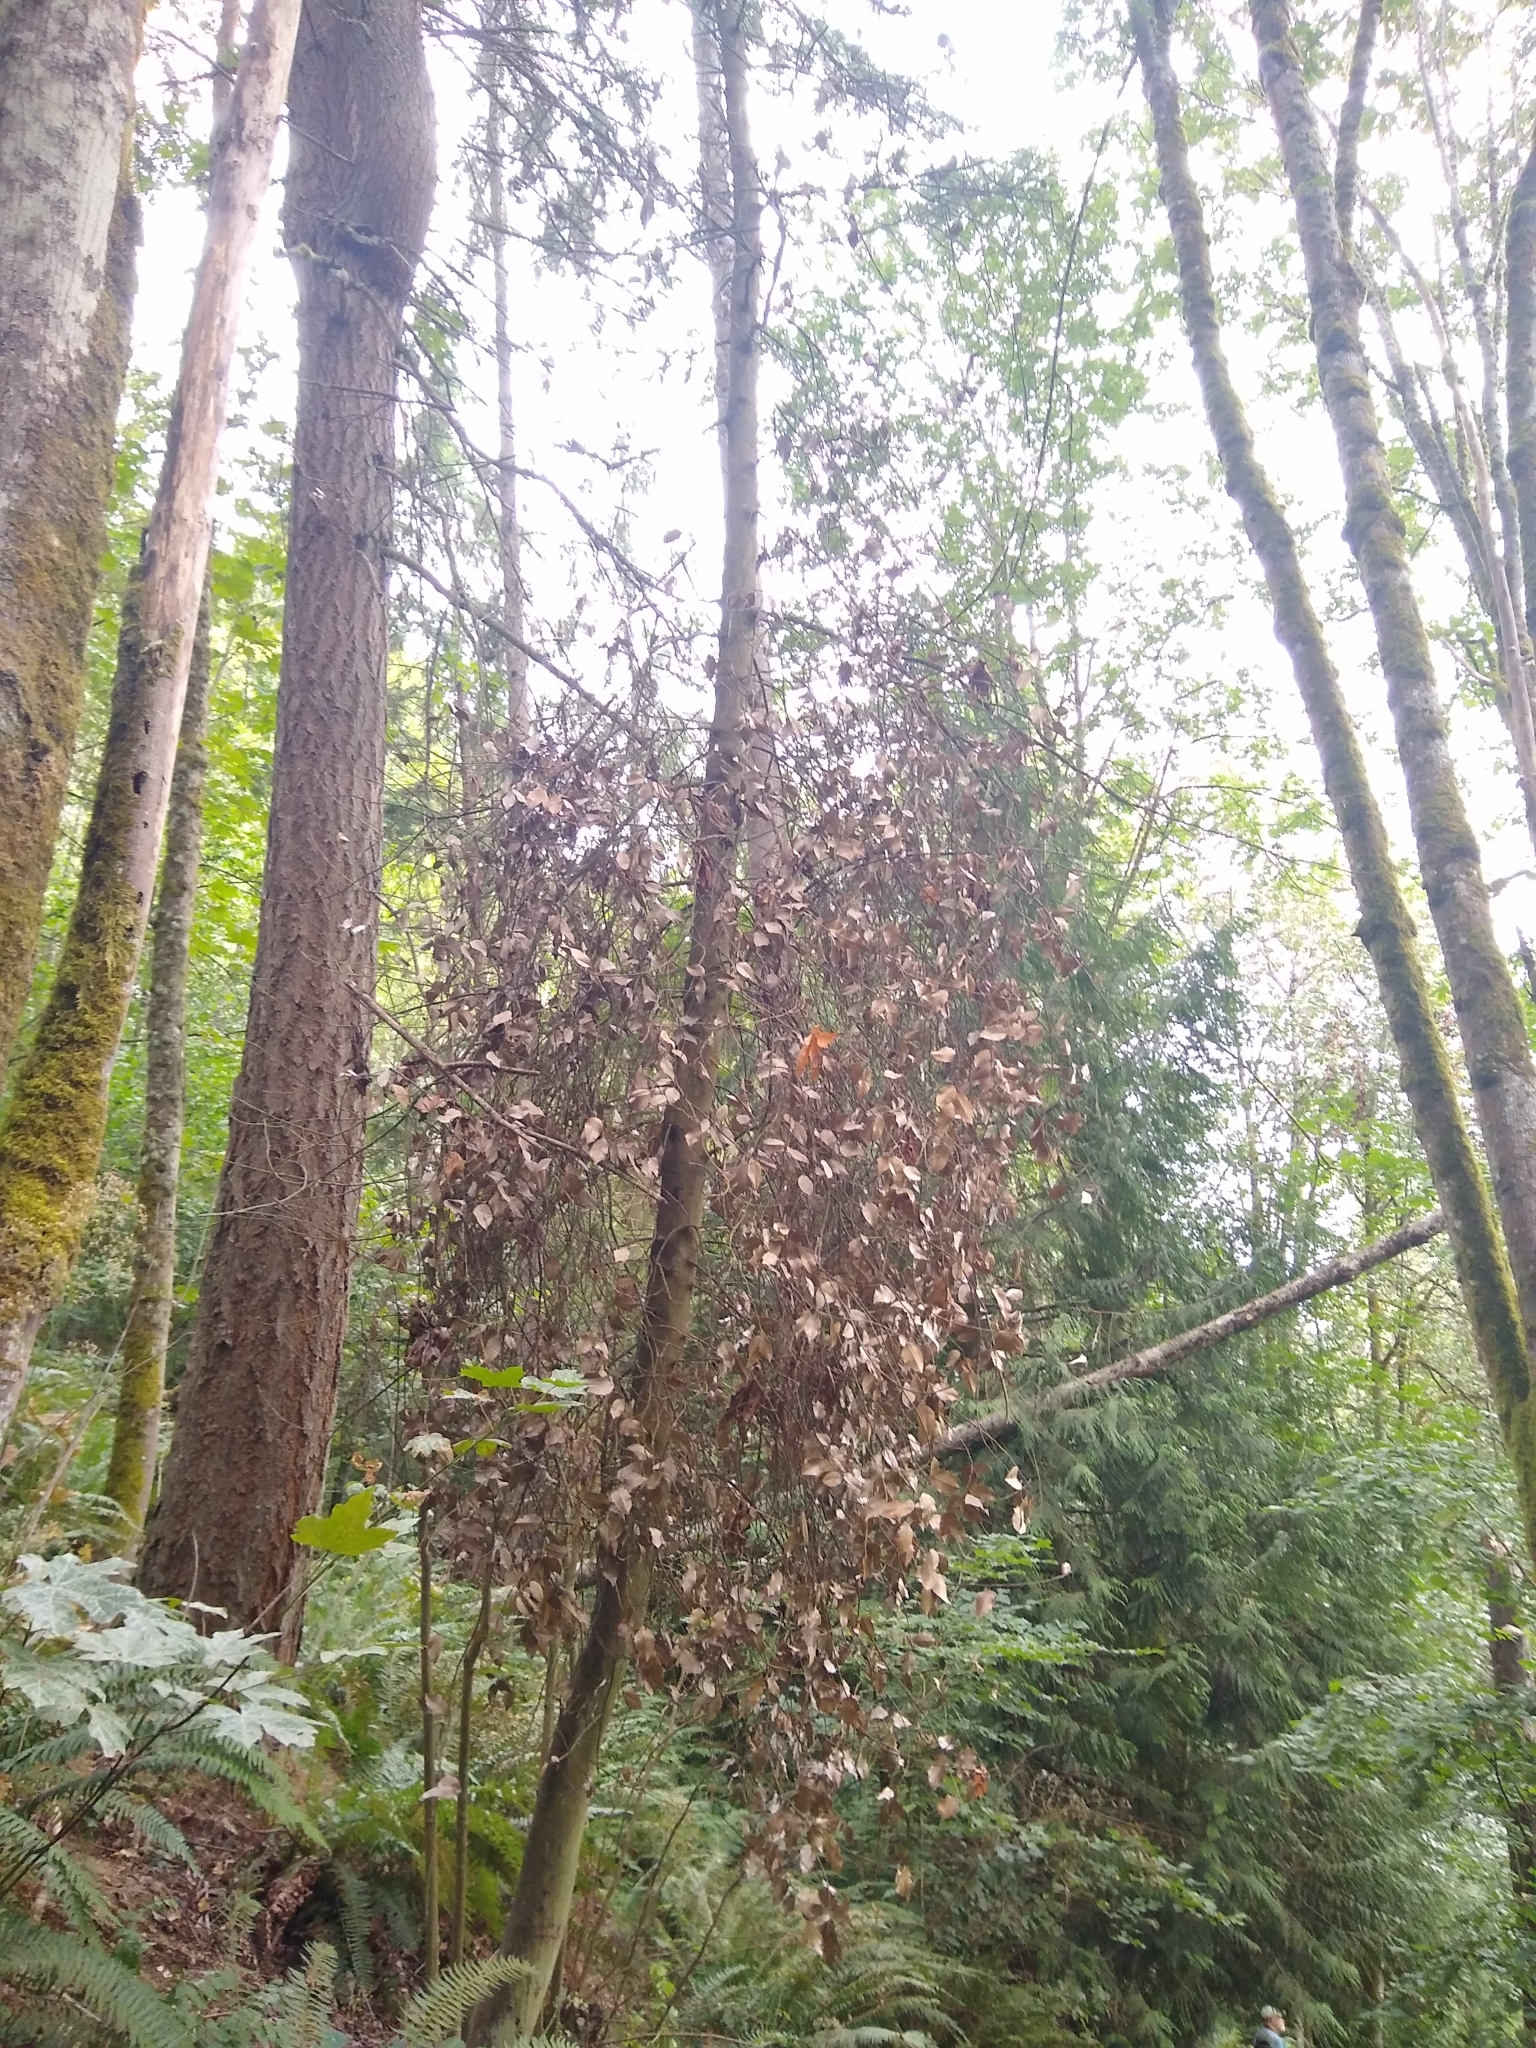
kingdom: Plantae
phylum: Tracheophyta
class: Magnoliopsida
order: Aquifoliales
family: Aquifoliaceae
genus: Ilex
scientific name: Ilex aquifolium
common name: English holly
